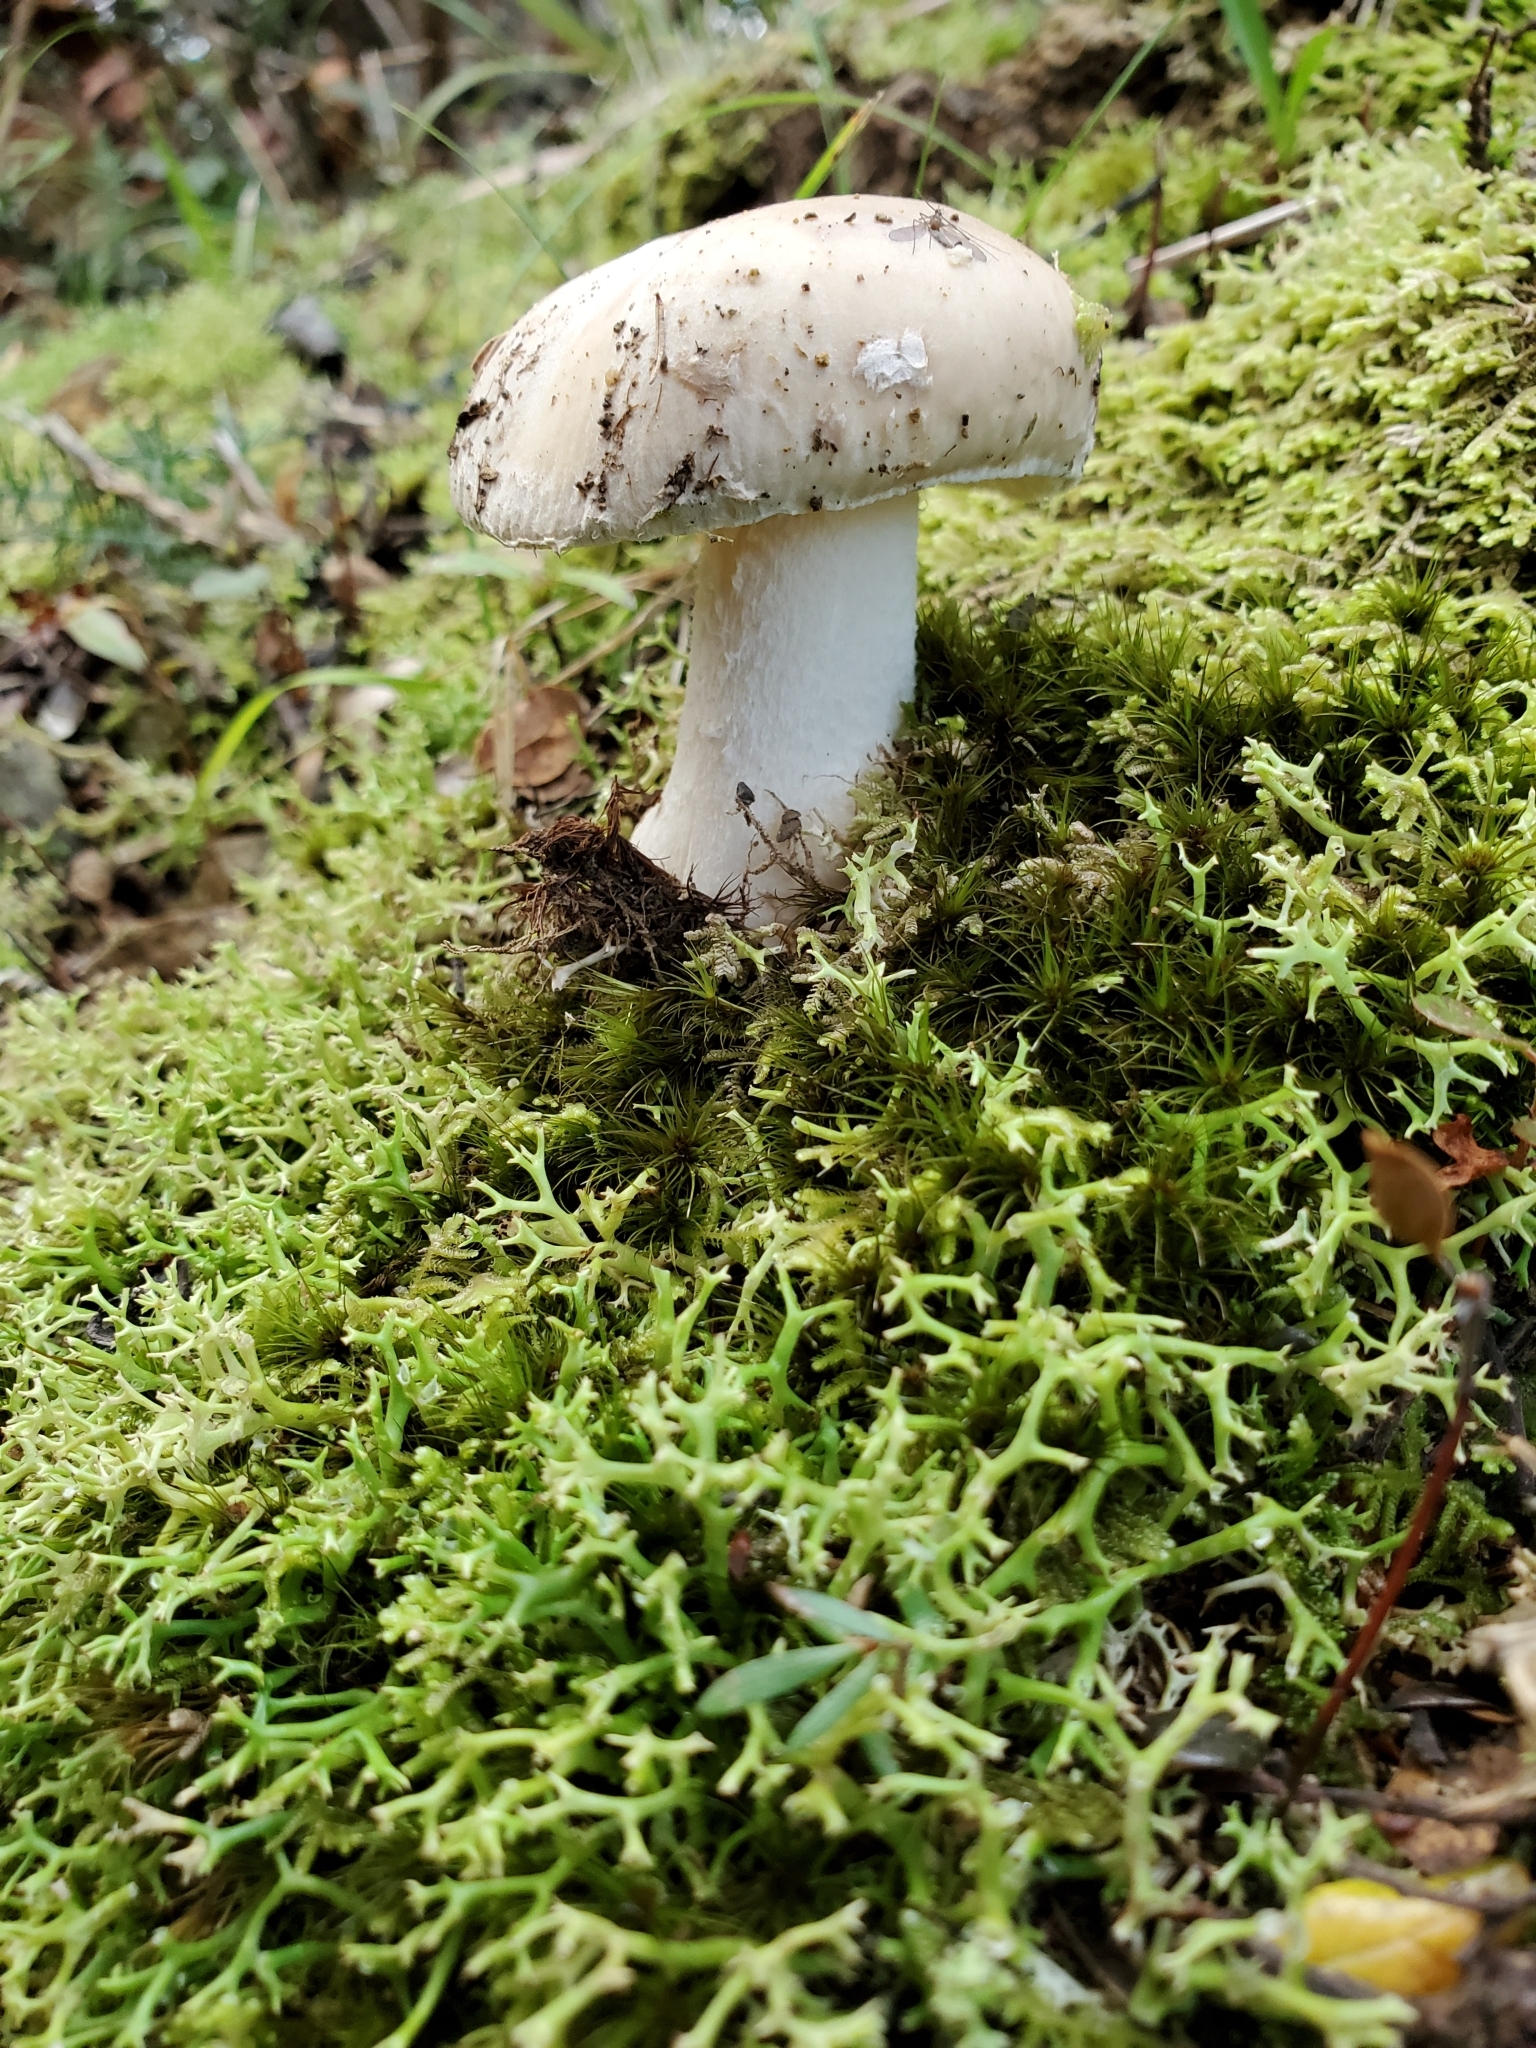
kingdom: Fungi
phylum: Basidiomycota
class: Agaricomycetes
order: Agaricales
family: Amanitaceae
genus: Amanita
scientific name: Amanita taiepa
